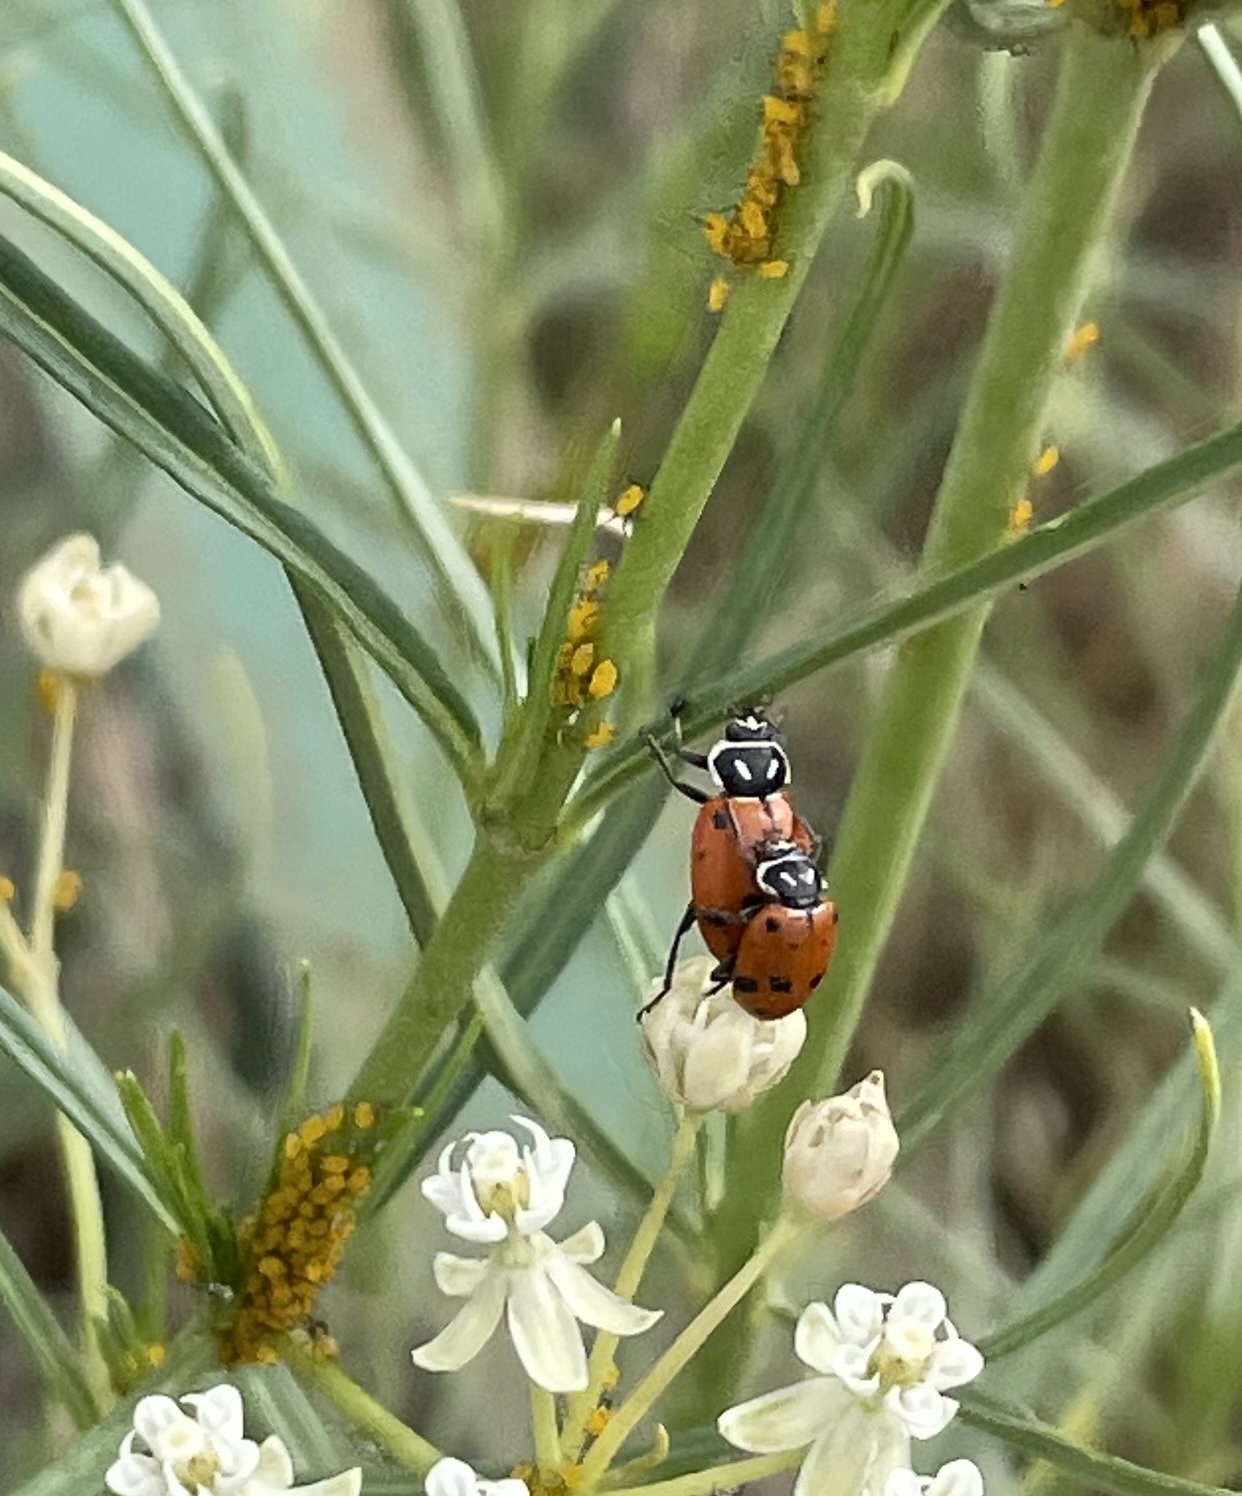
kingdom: Animalia
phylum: Arthropoda
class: Insecta
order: Coleoptera
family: Coccinellidae
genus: Hippodamia
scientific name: Hippodamia convergens
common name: Convergent lady beetle
